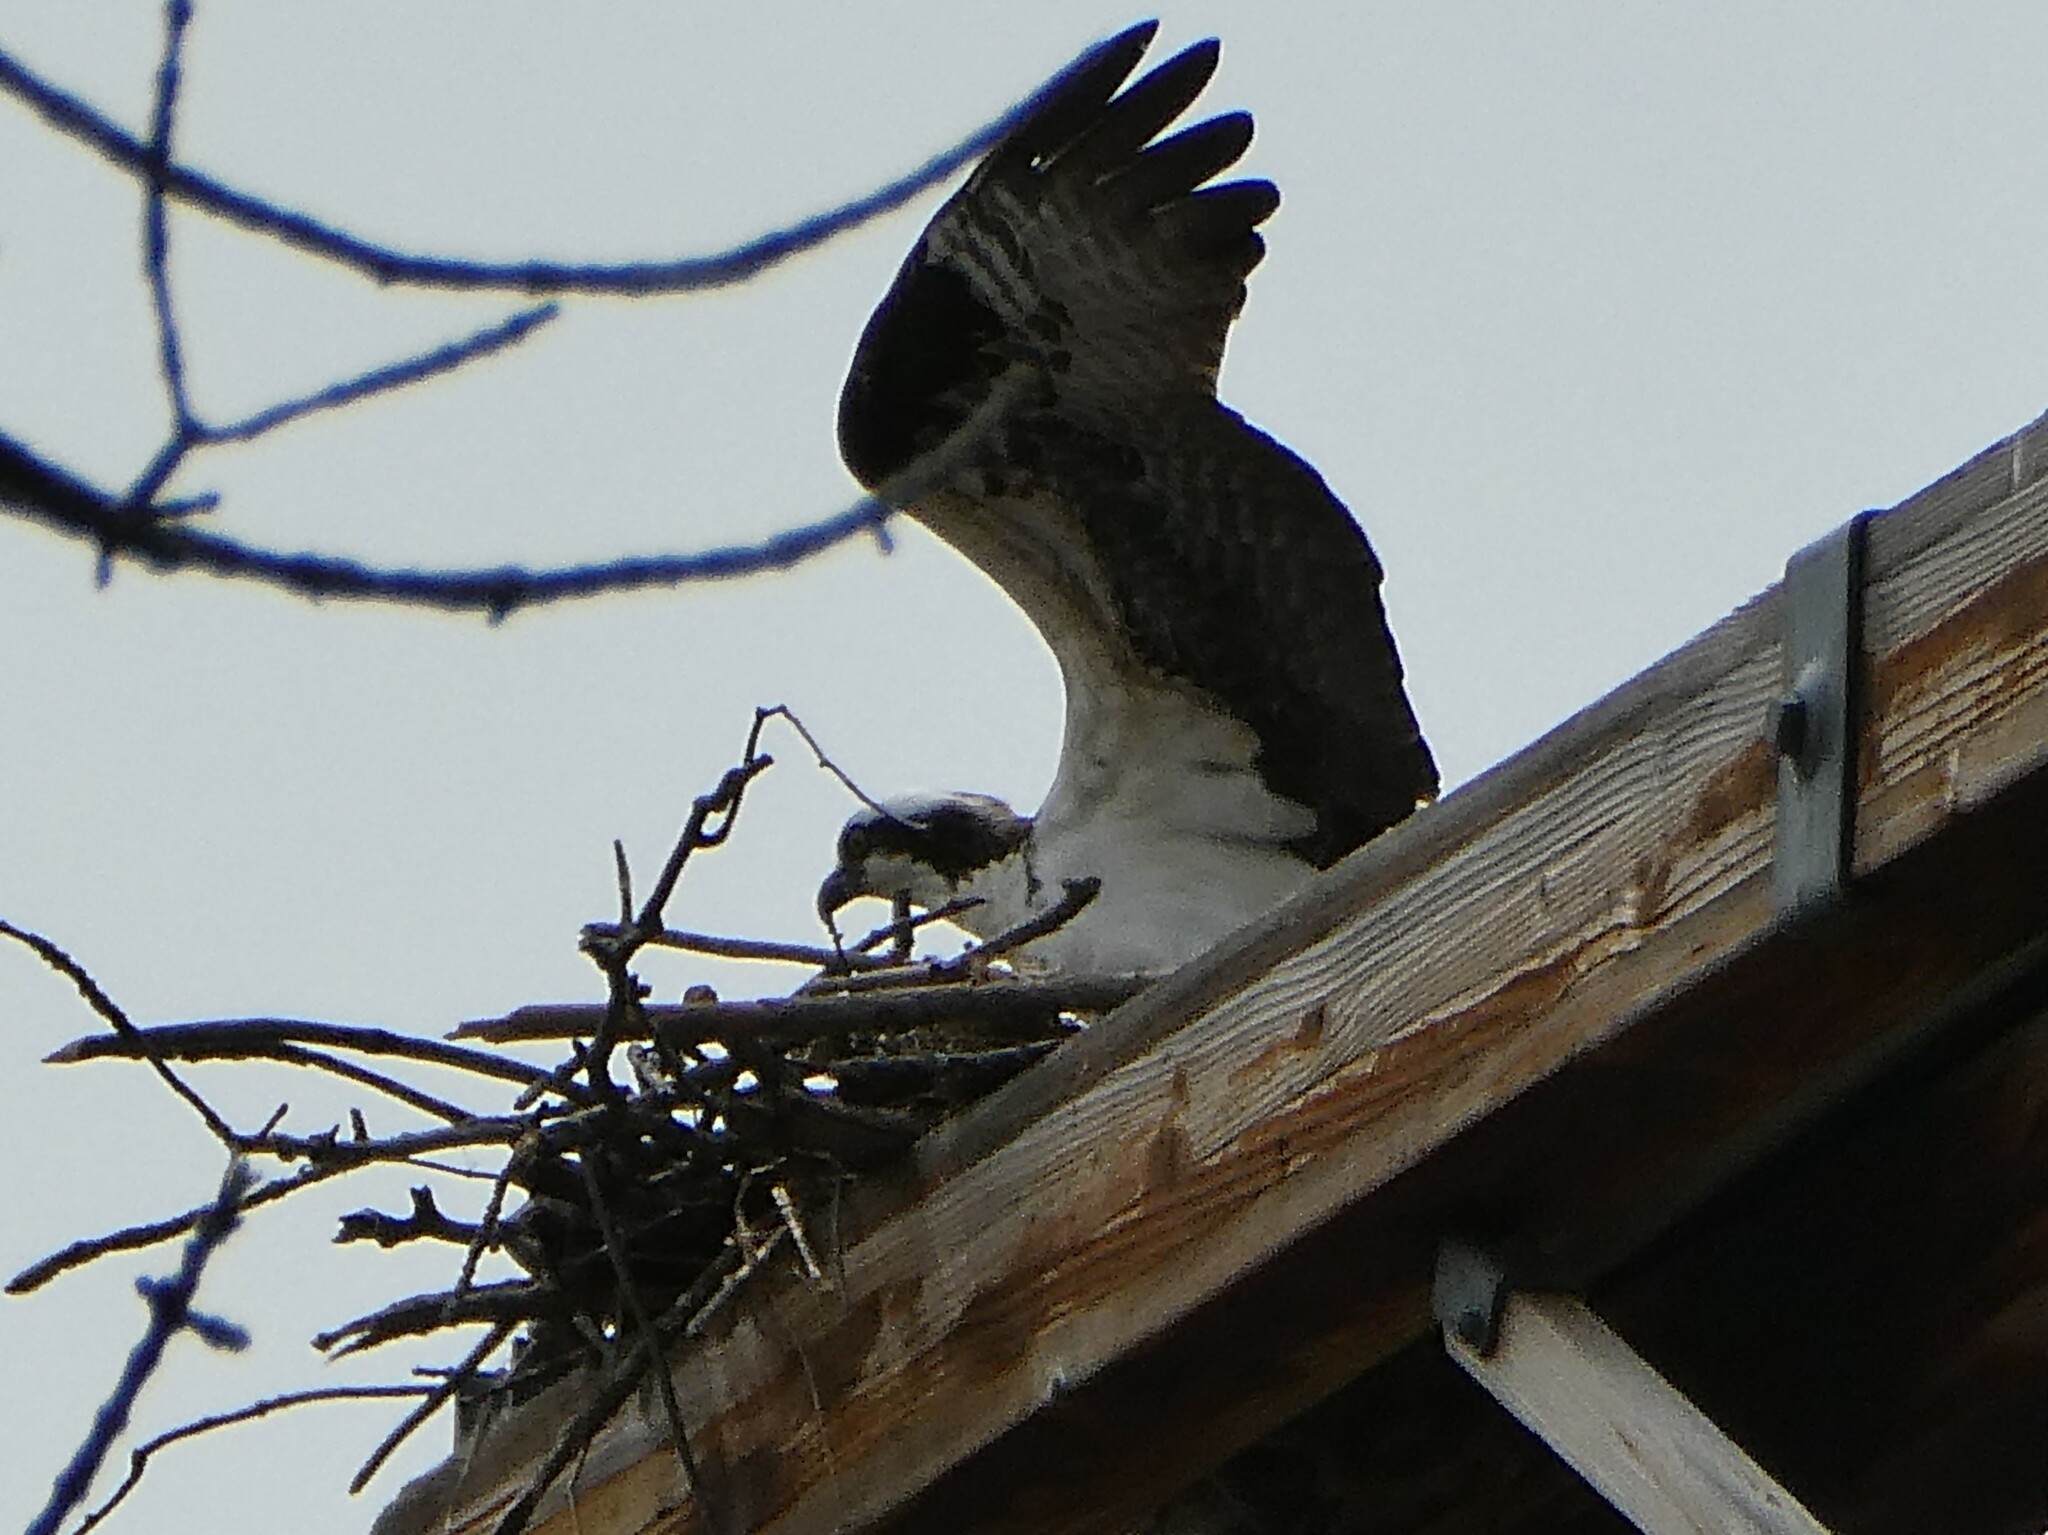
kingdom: Animalia
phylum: Chordata
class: Aves
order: Accipitriformes
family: Pandionidae
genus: Pandion
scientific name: Pandion haliaetus
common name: Osprey
